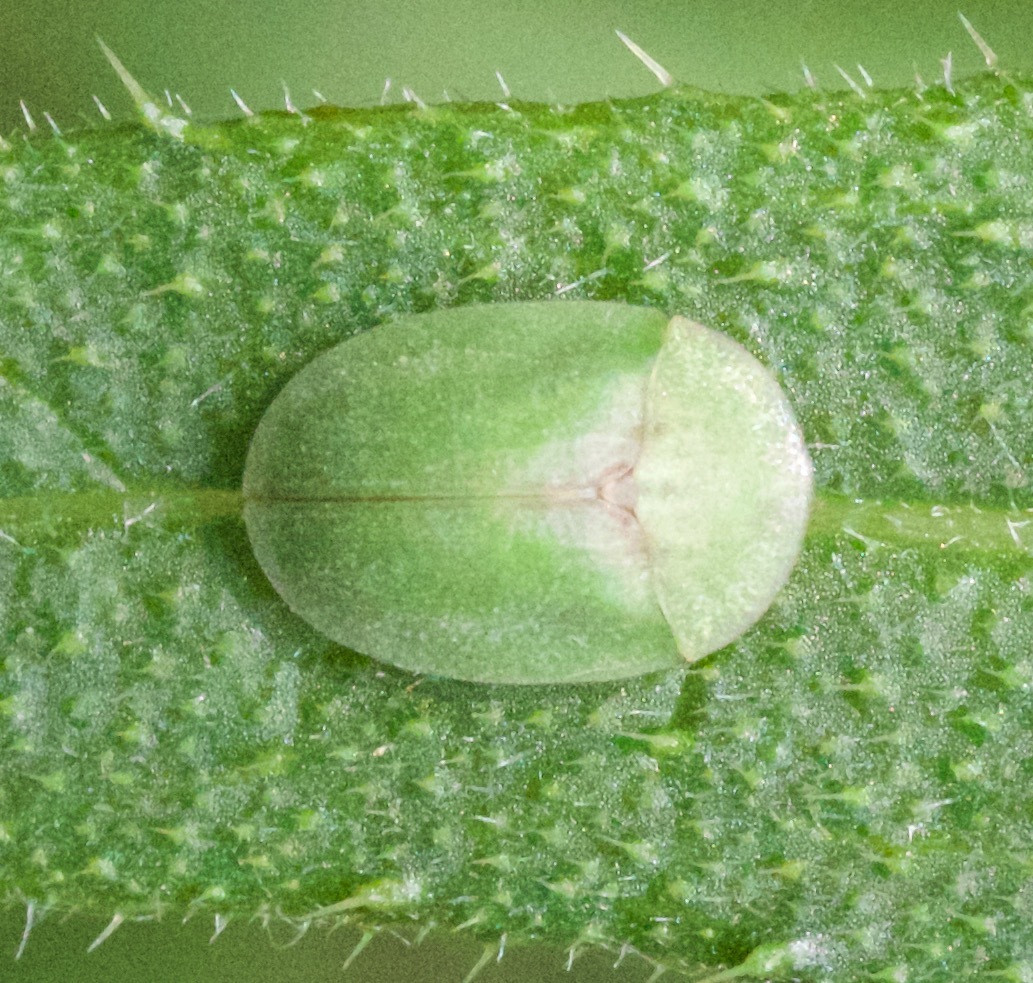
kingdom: Animalia
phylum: Arthropoda
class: Insecta
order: Coleoptera
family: Chrysomelidae
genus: Cassida
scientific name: Cassida rubiginosa
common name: Thistle tortoise beetle
